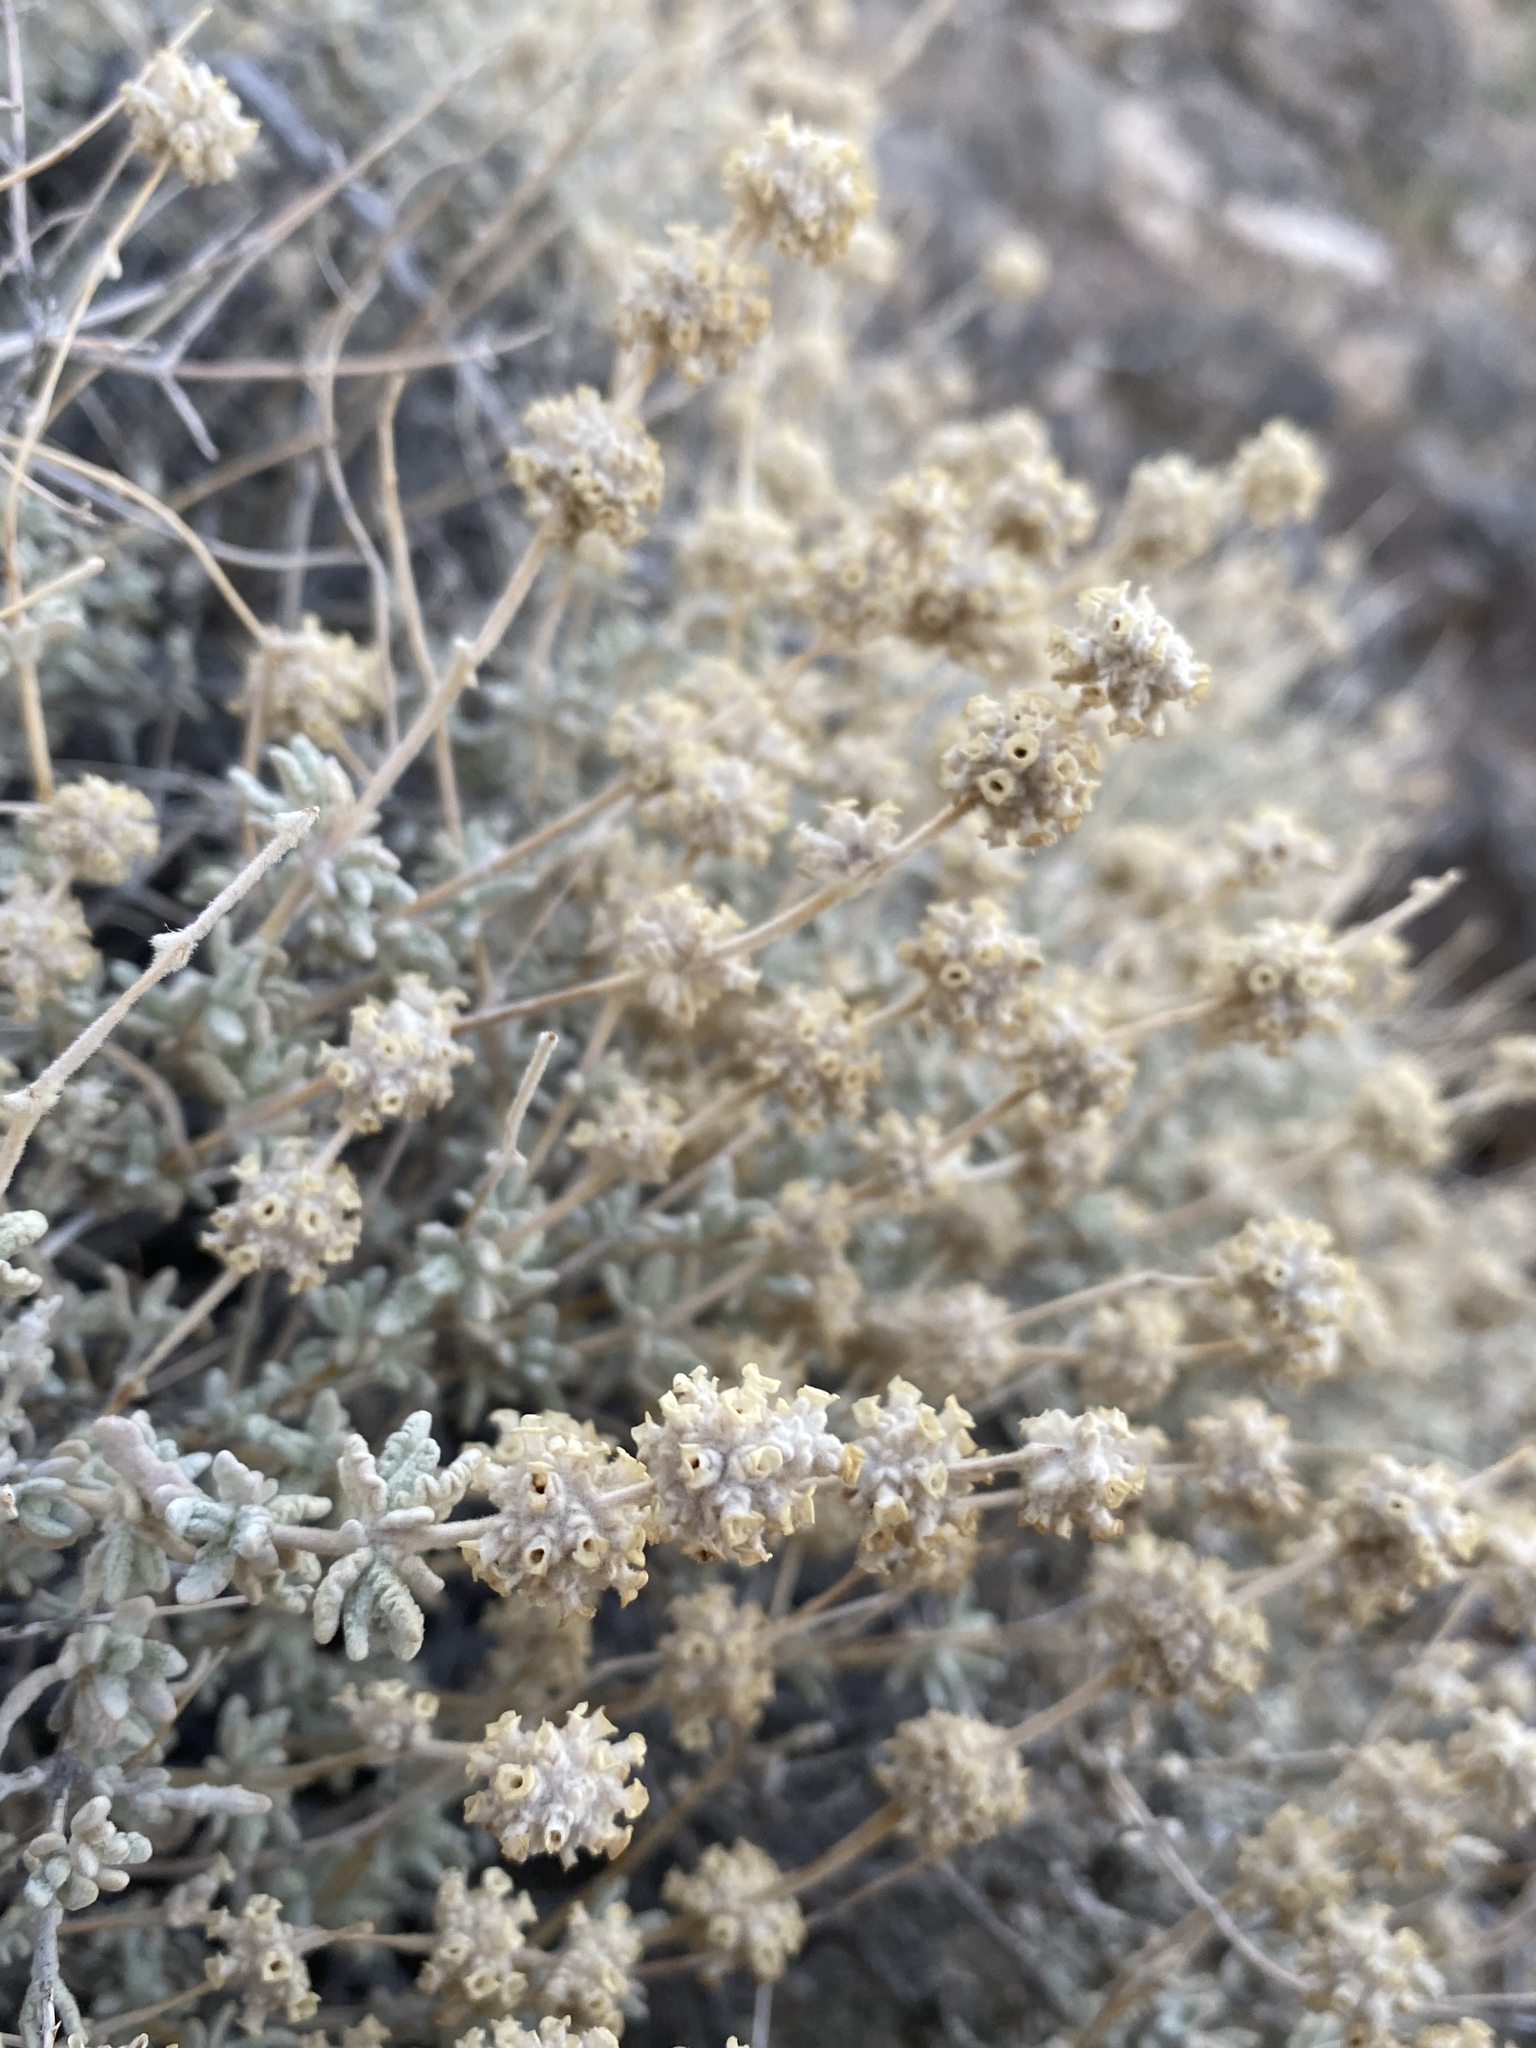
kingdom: Plantae
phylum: Tracheophyta
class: Magnoliopsida
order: Lamiales
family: Scrophulariaceae
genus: Buddleja
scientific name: Buddleja utahensis
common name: Utah butterfly-bush
